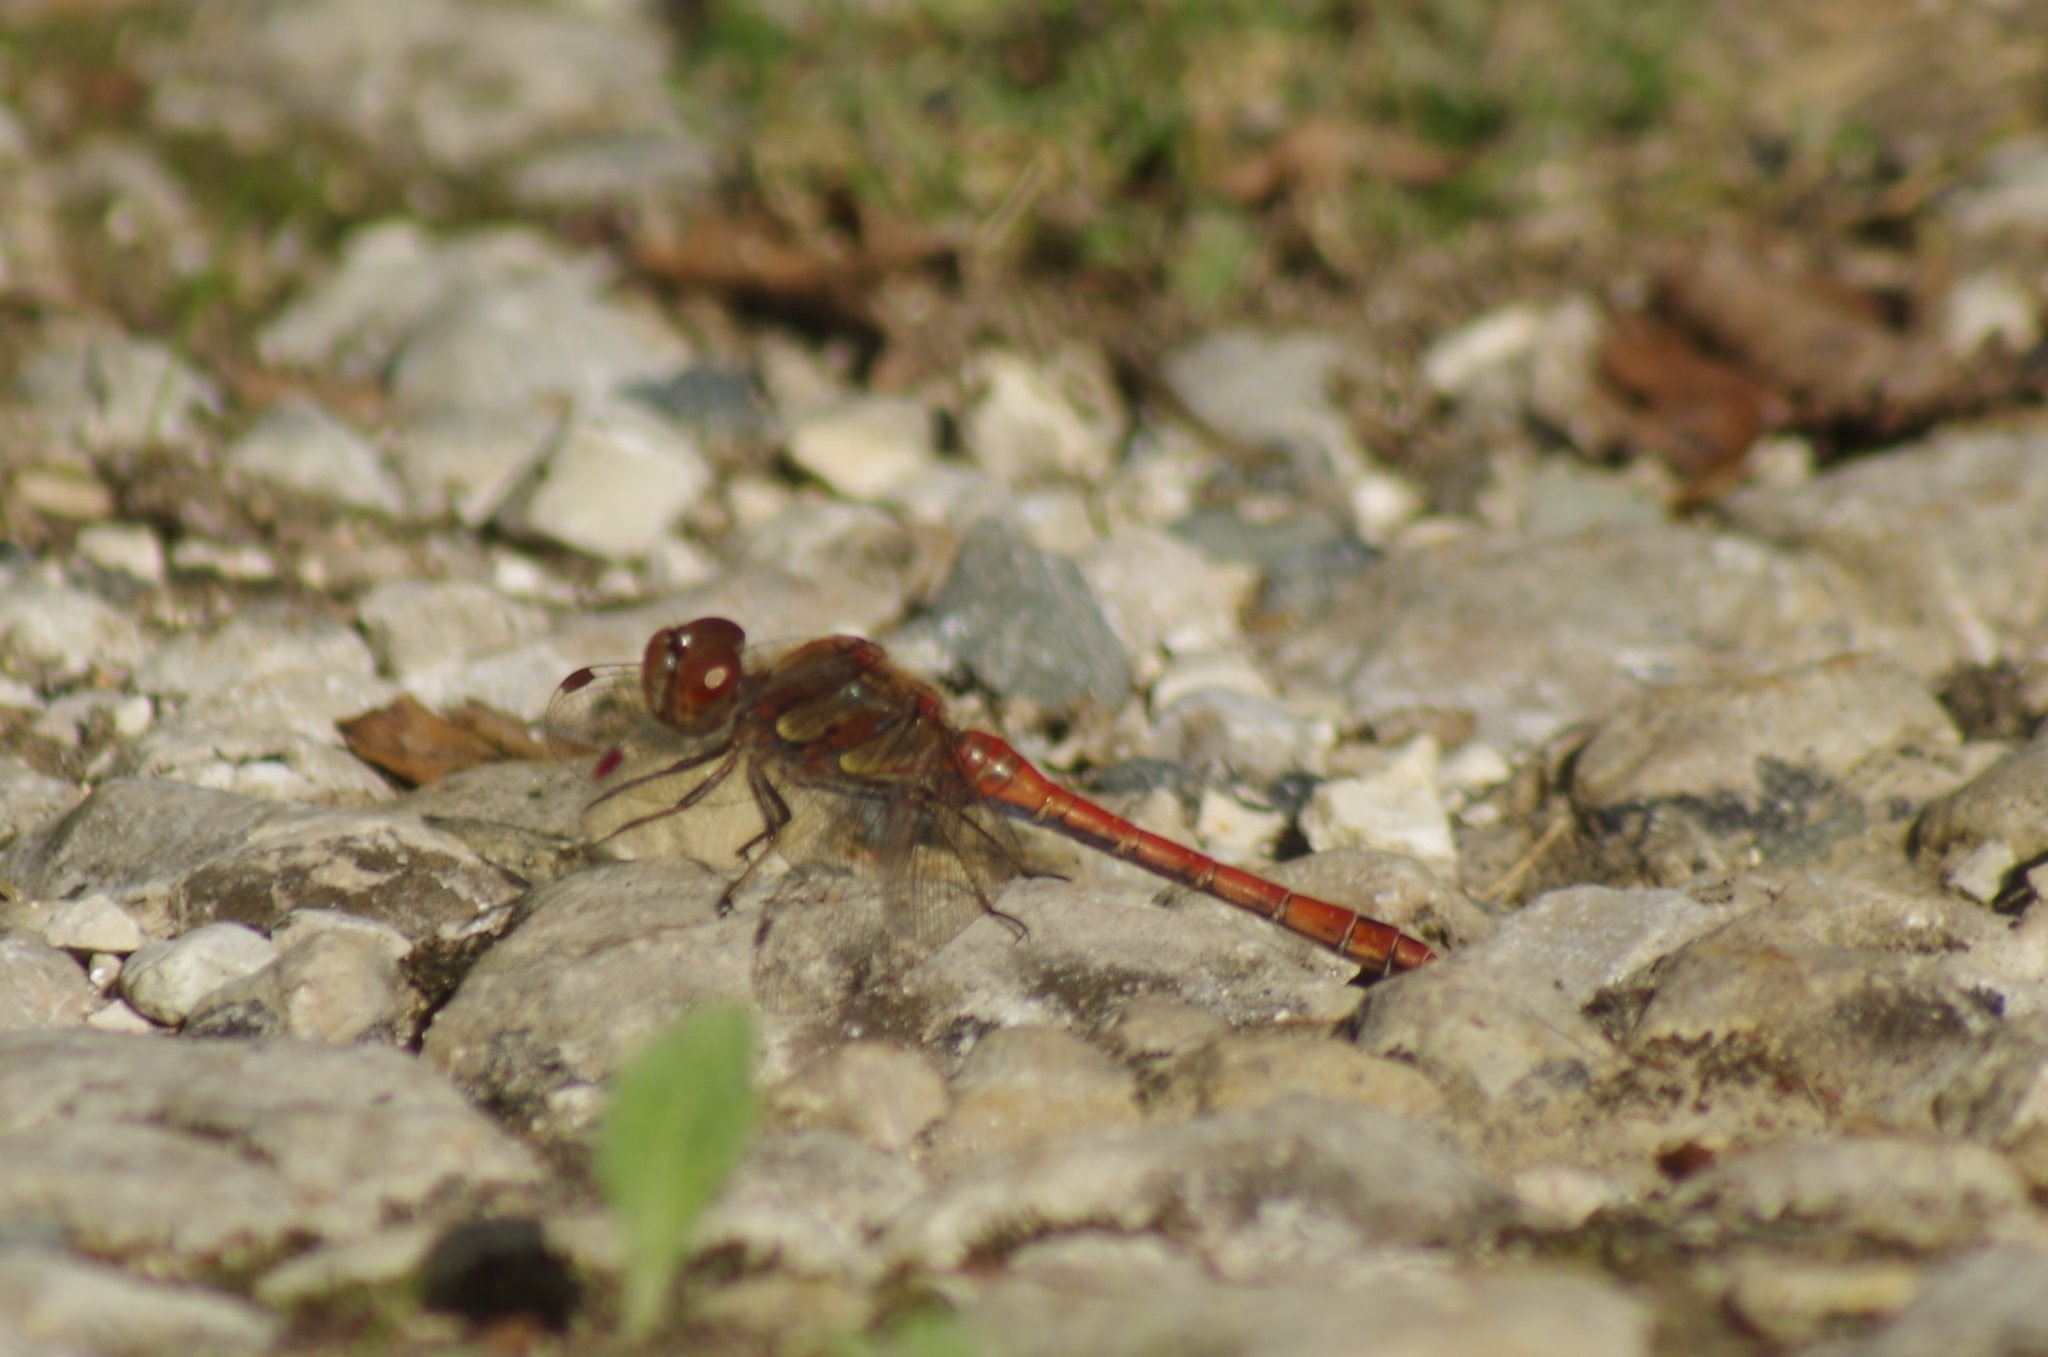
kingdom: Animalia
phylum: Arthropoda
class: Insecta
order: Odonata
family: Libellulidae
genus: Sympetrum
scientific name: Sympetrum striolatum
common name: Common darter
